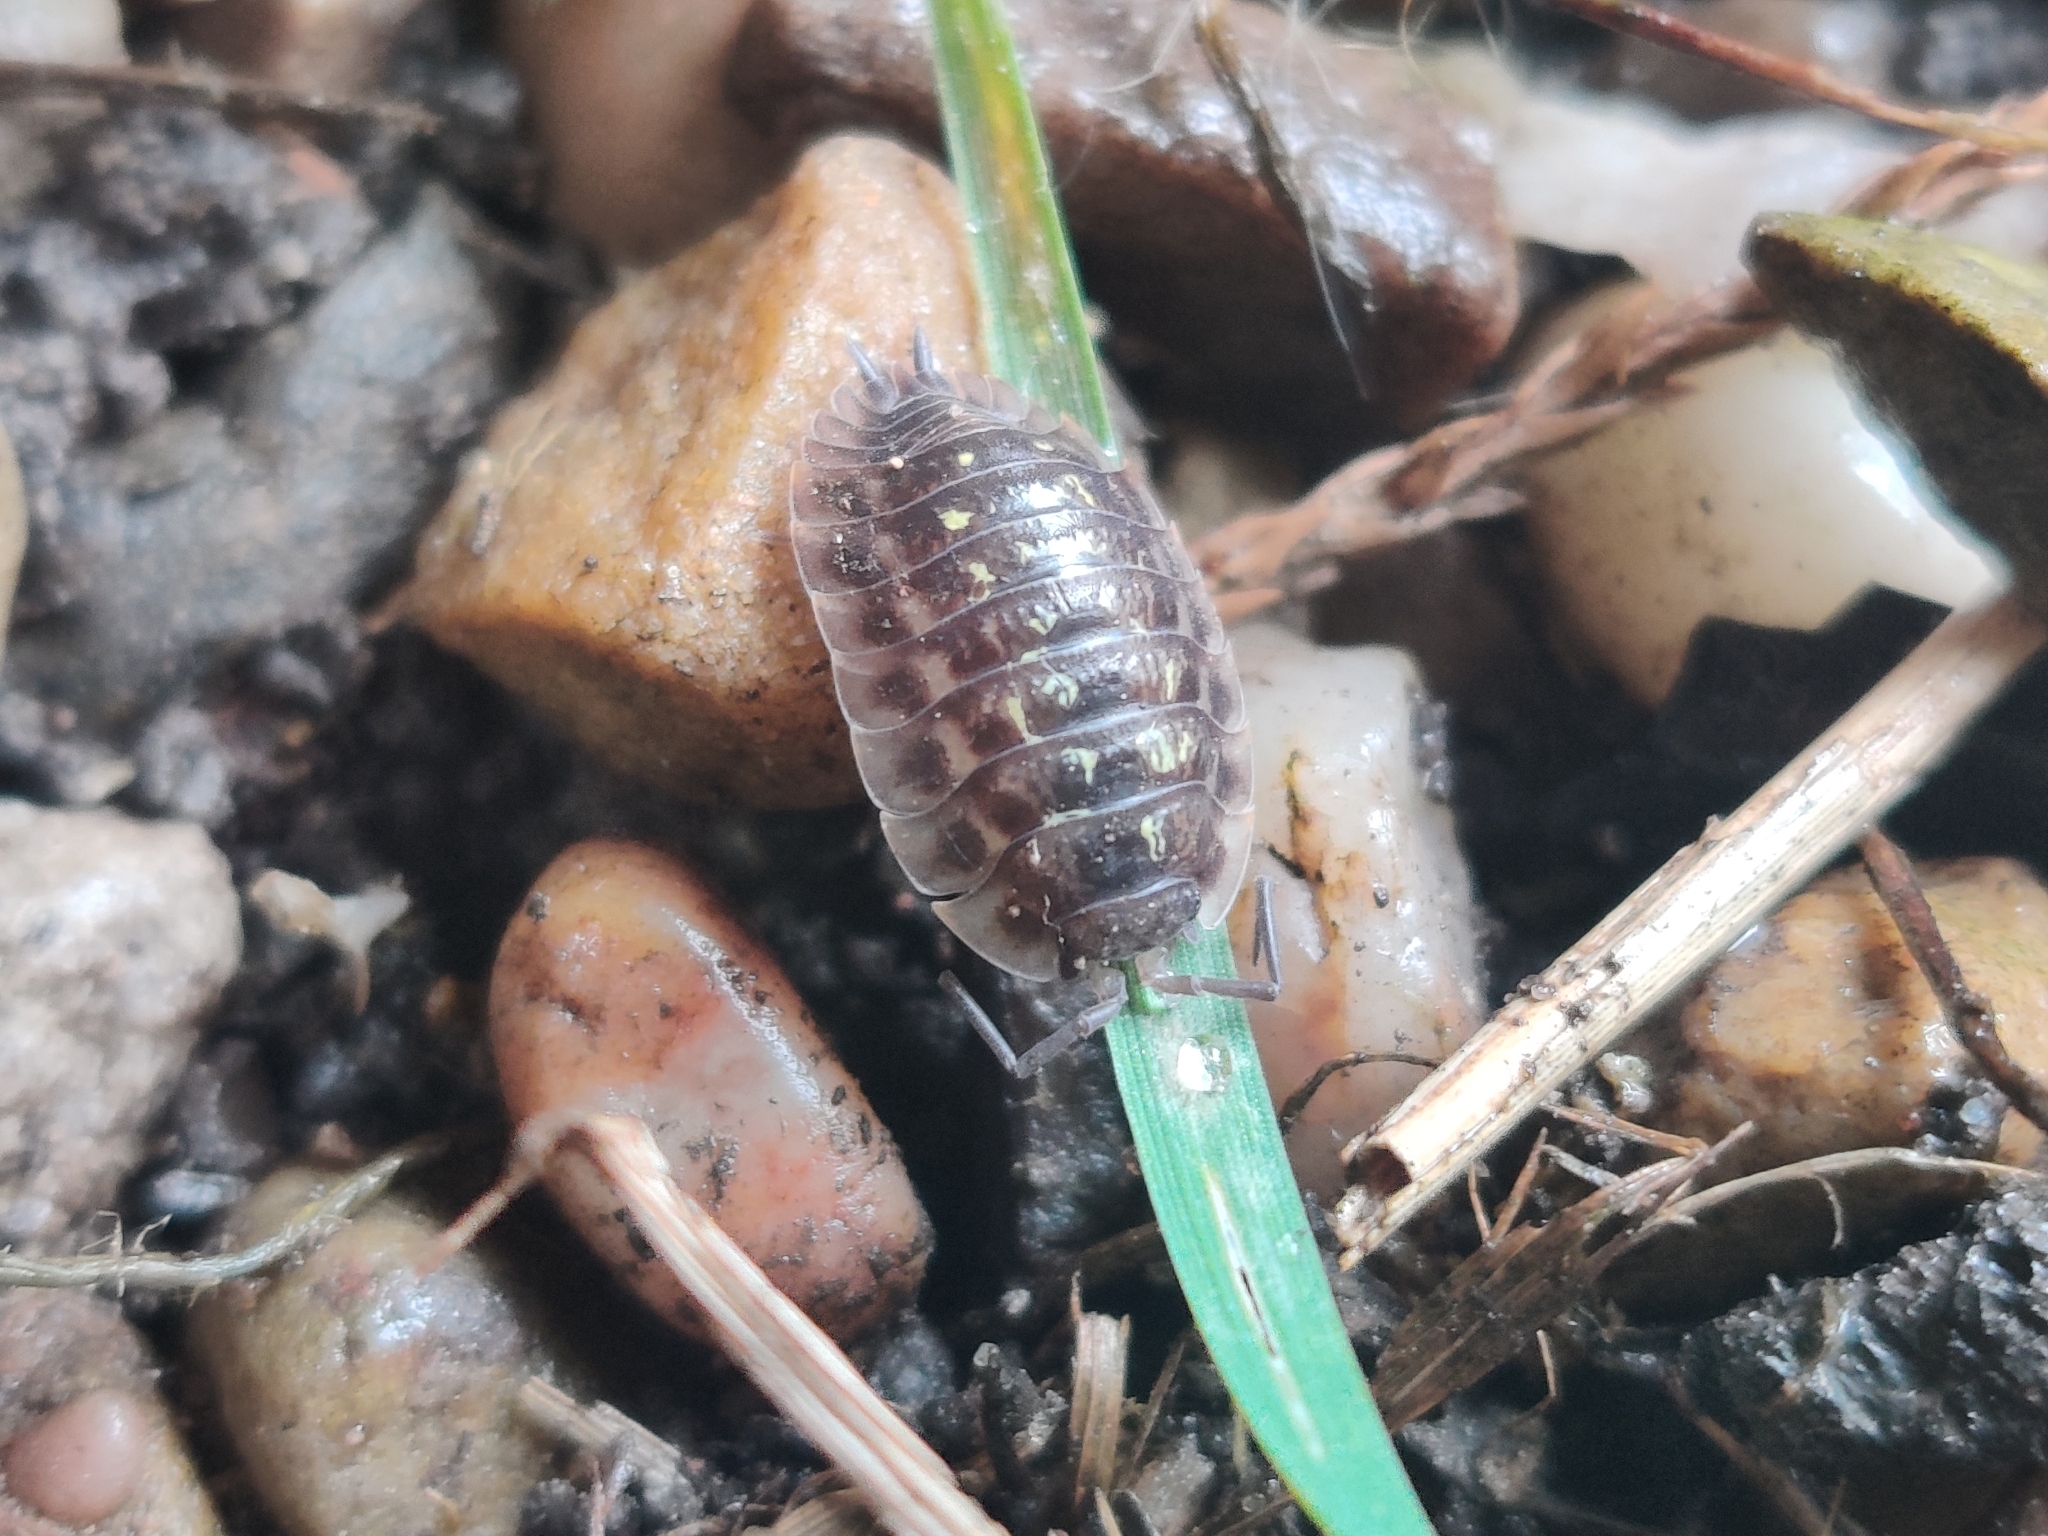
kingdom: Animalia
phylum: Arthropoda
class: Malacostraca
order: Isopoda
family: Oniscidae
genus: Oniscus
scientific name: Oniscus asellus
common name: Common shiny woodlouse
